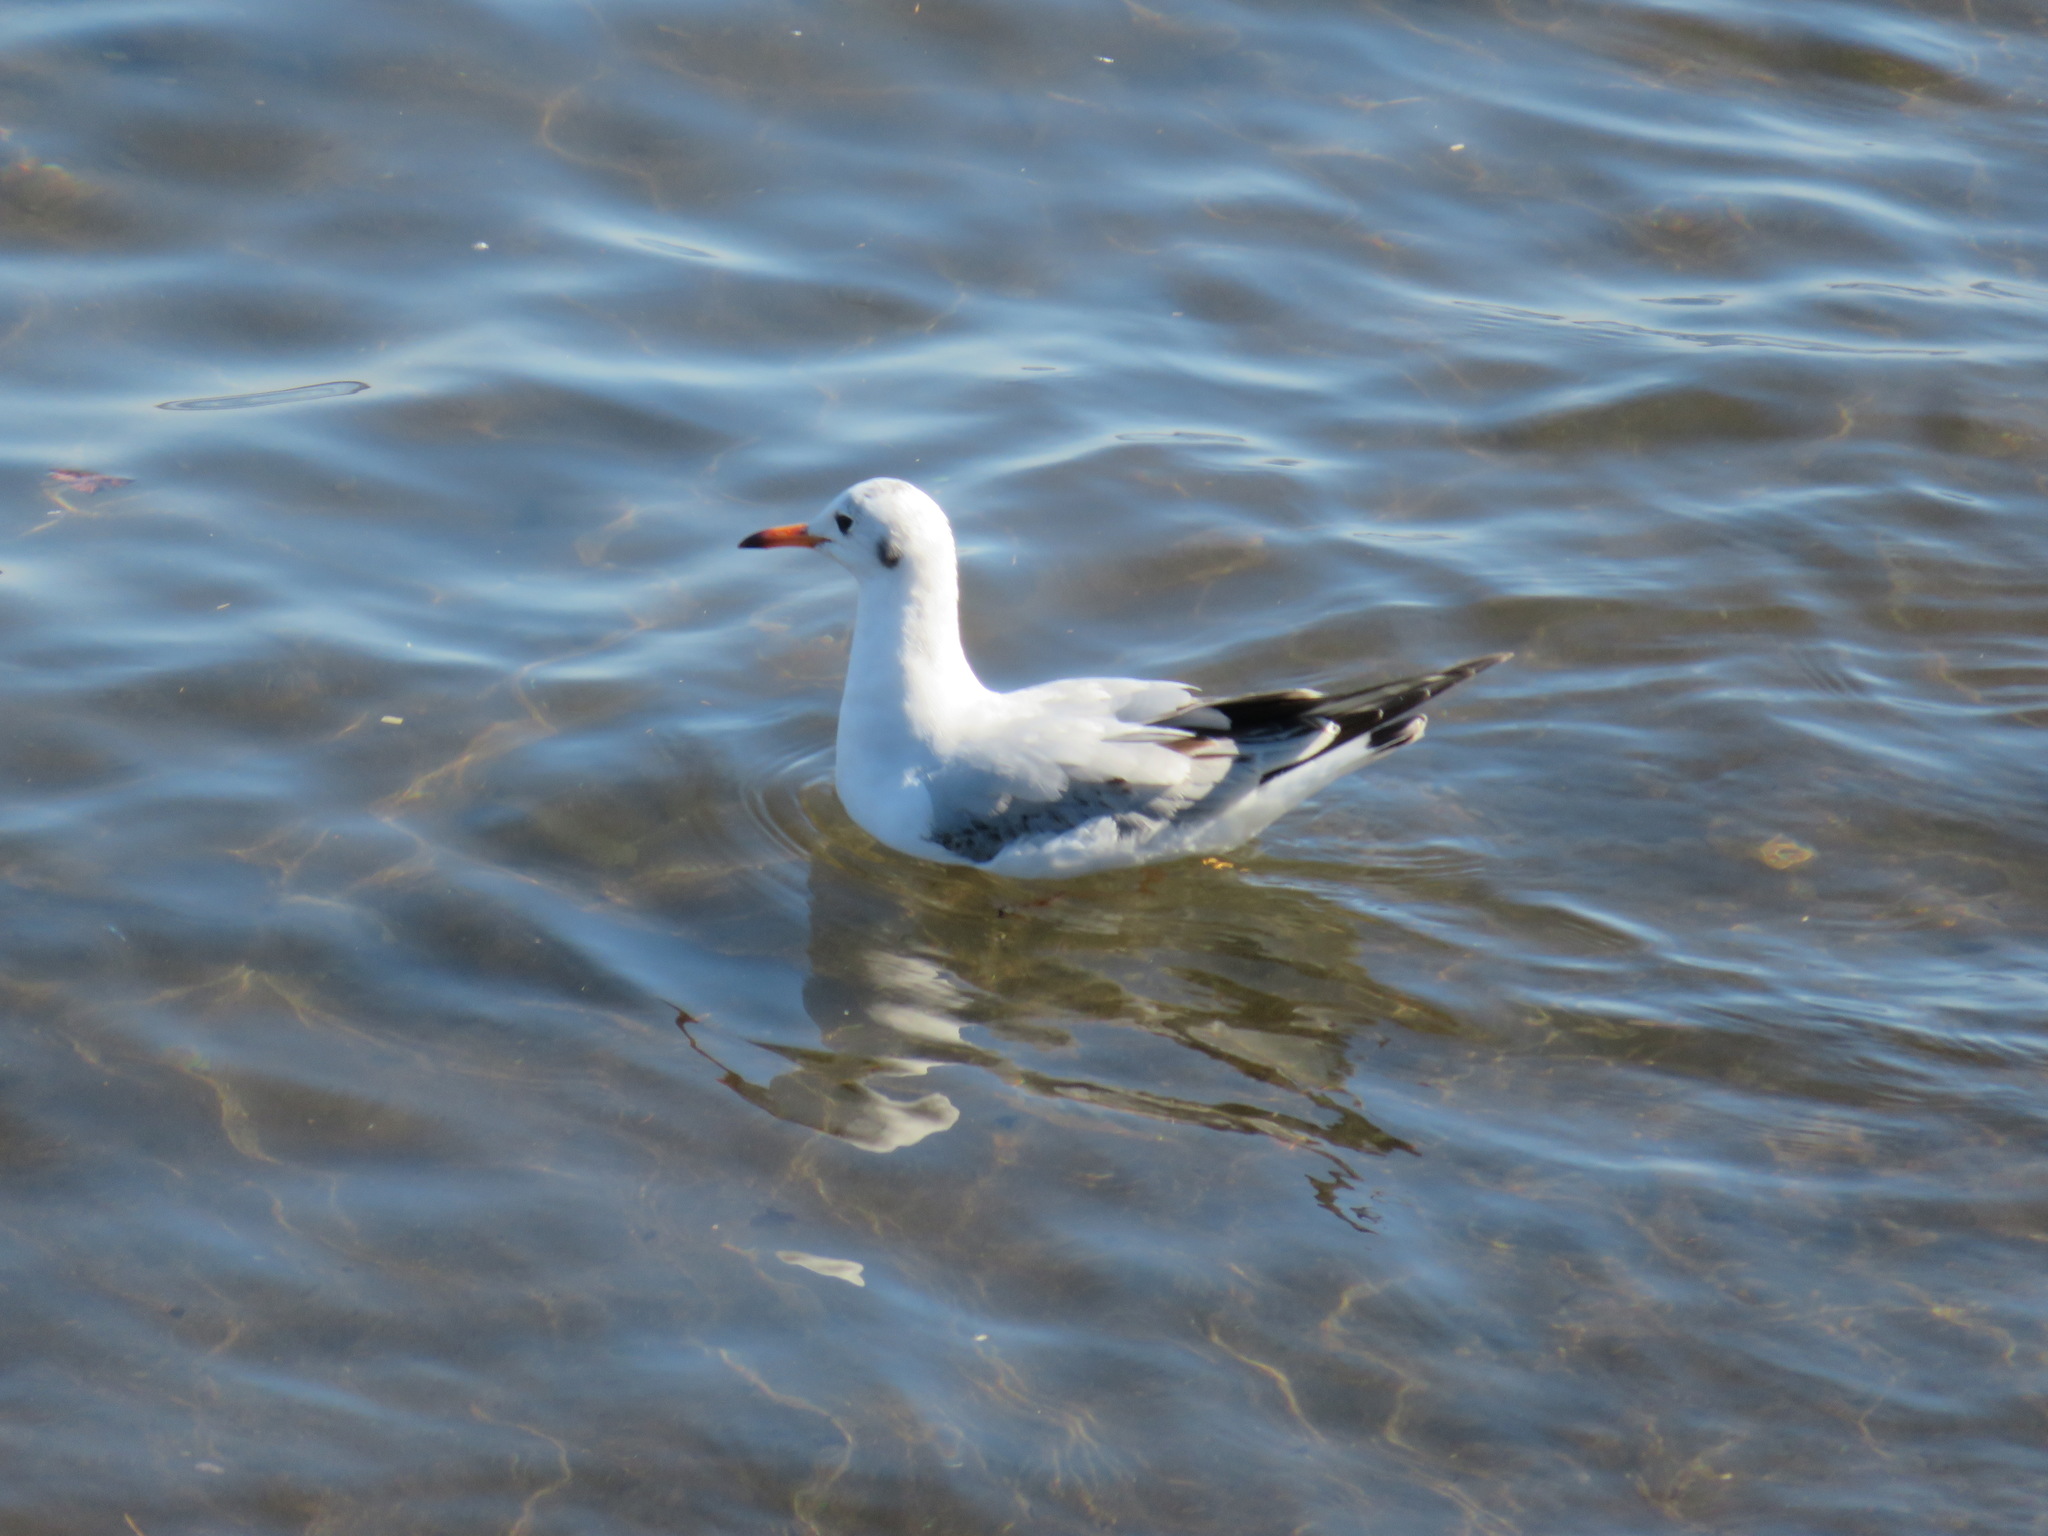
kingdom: Animalia
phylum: Chordata
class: Aves
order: Charadriiformes
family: Laridae
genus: Chroicocephalus
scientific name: Chroicocephalus ridibundus
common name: Black-headed gull
